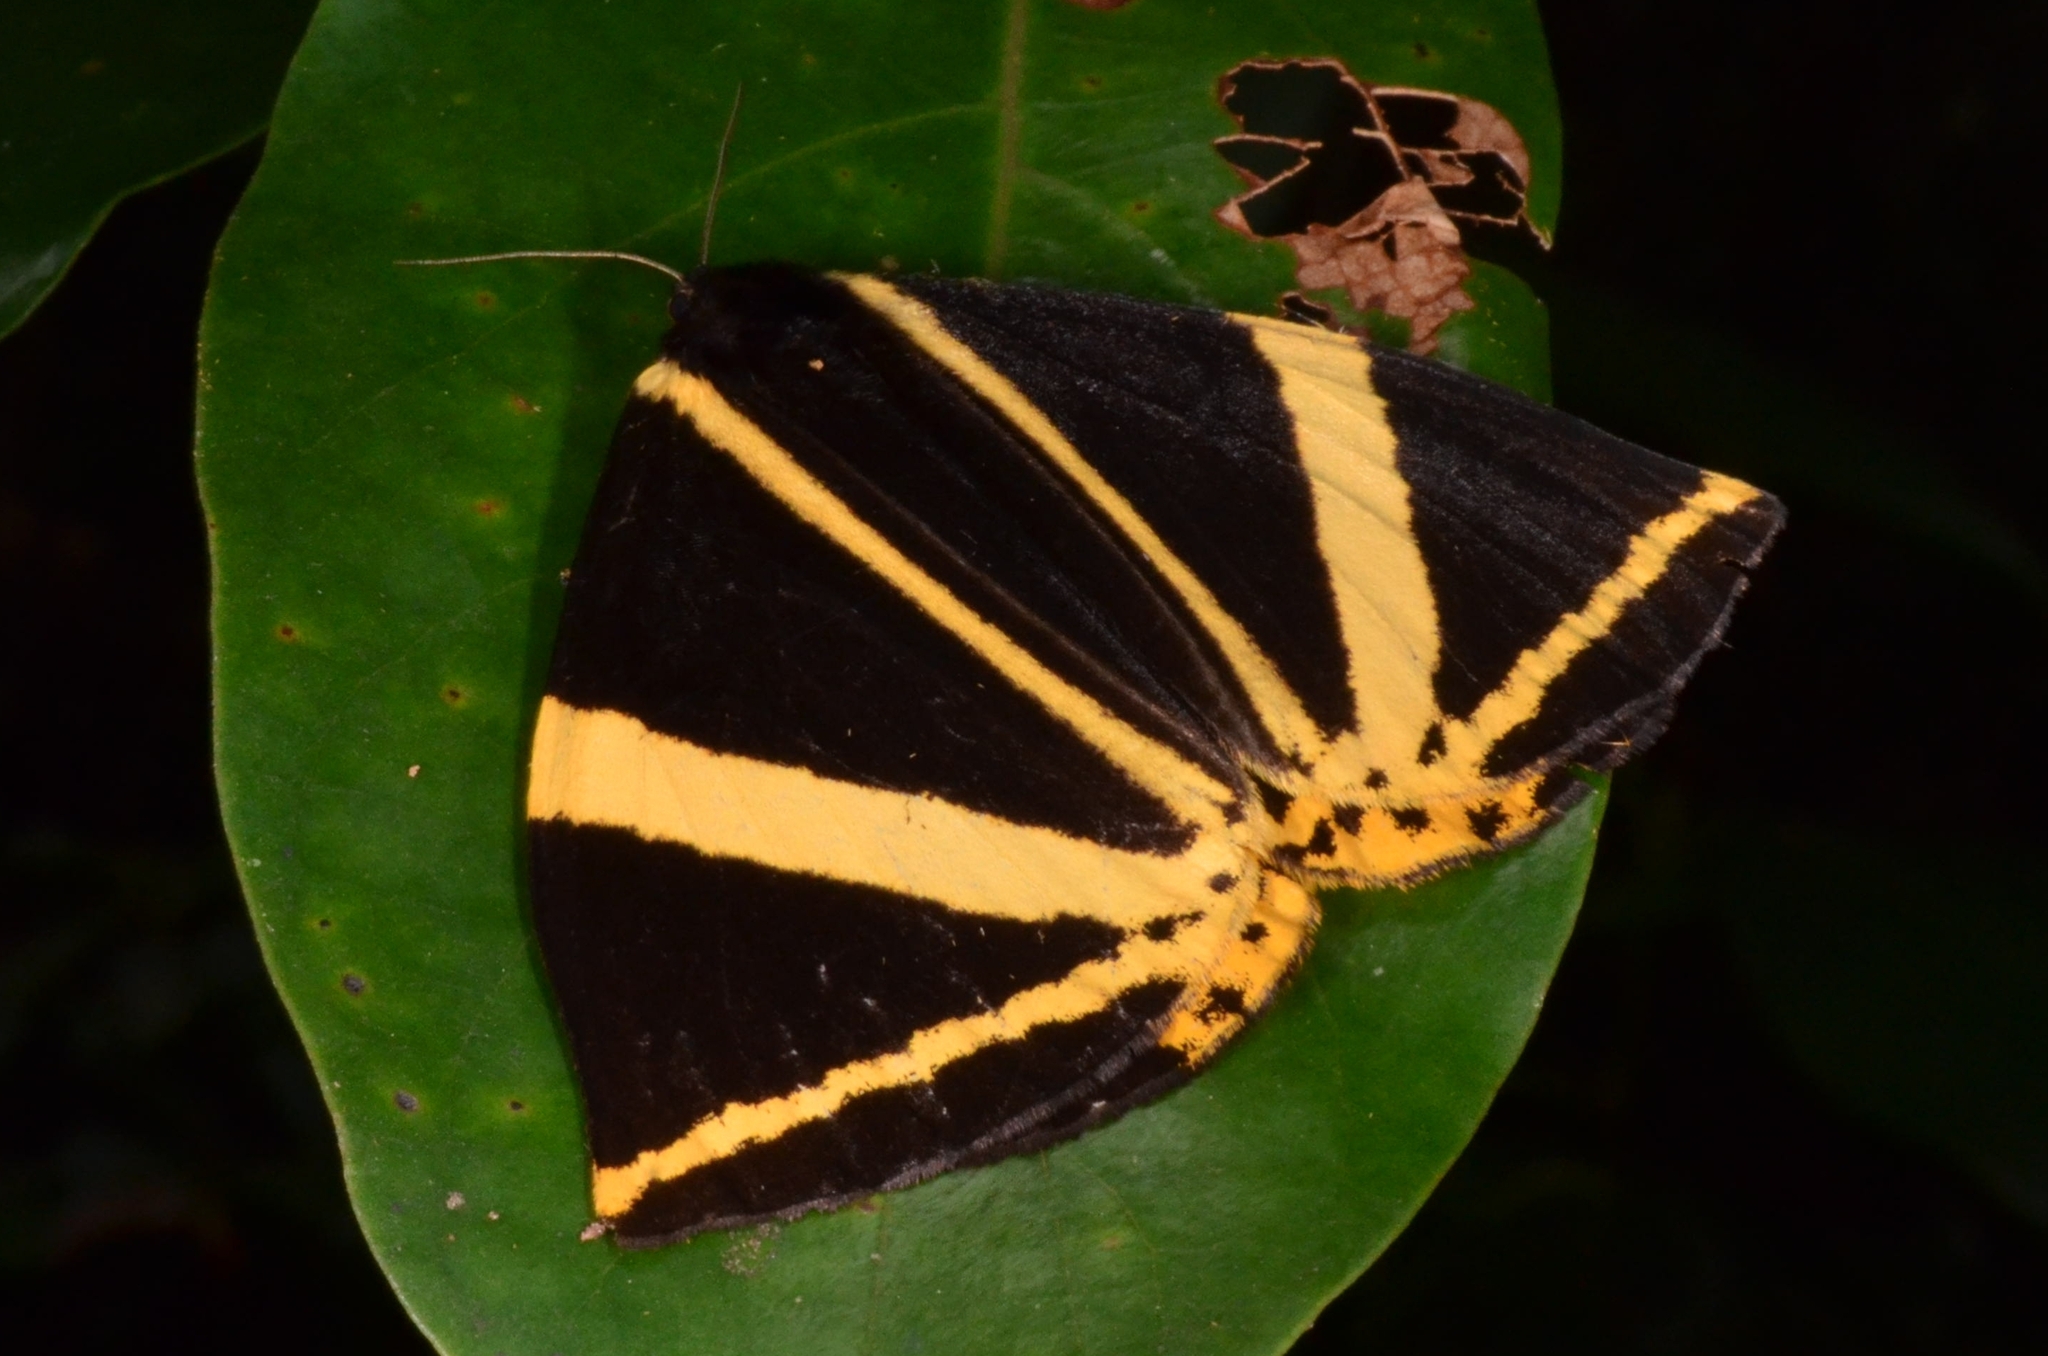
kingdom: Animalia
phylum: Arthropoda
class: Insecta
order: Lepidoptera
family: Epicopeiidae
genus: Amana
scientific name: Amana angulifera
